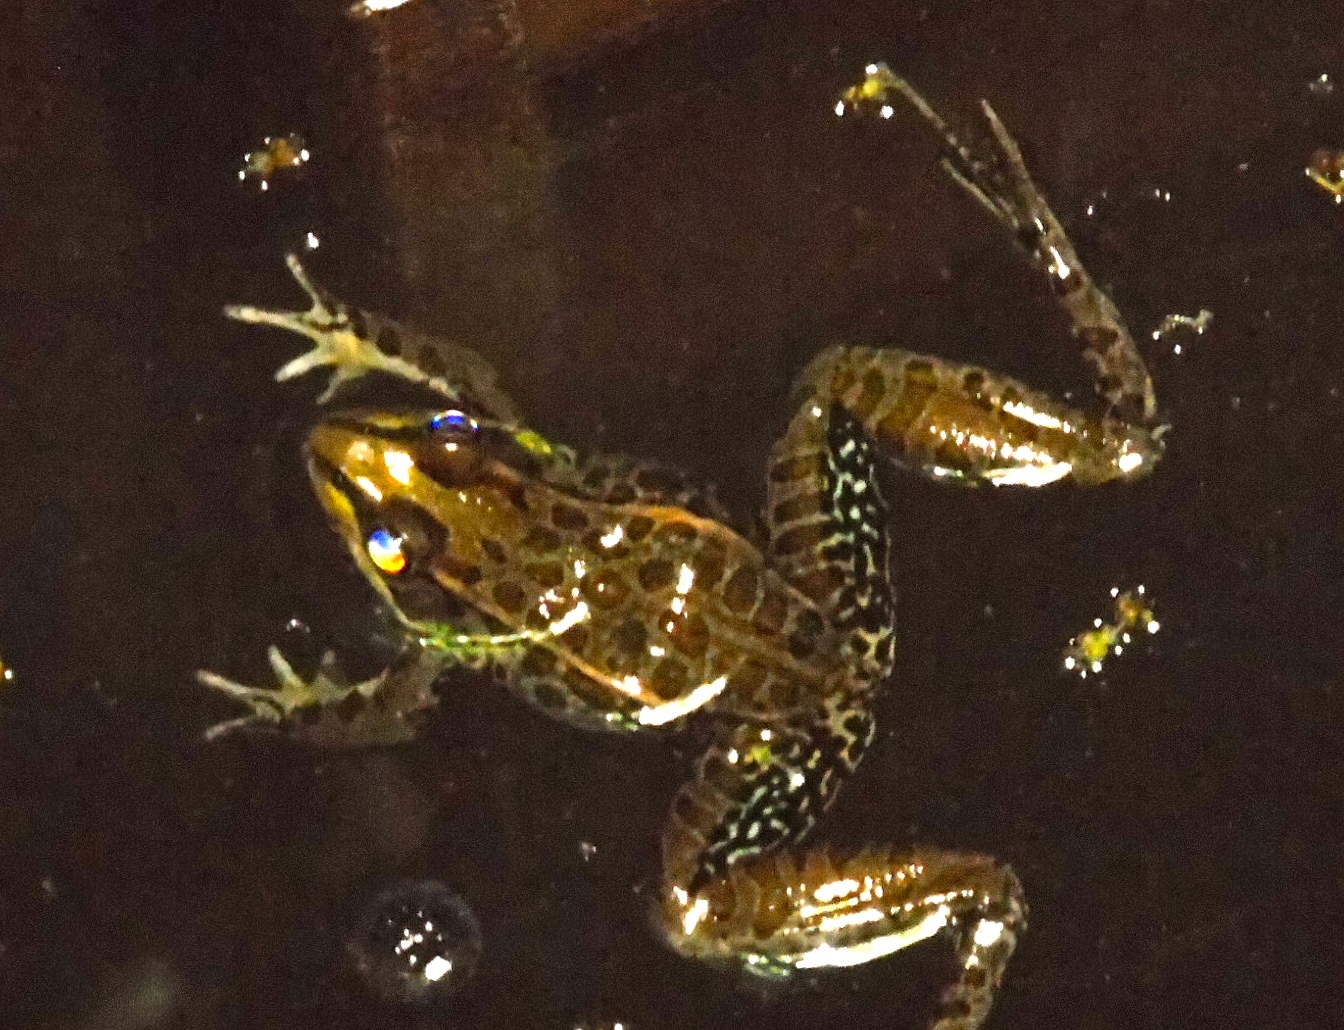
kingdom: Animalia
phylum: Chordata
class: Amphibia
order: Anura
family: Ranidae
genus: Lithobates
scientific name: Lithobates
